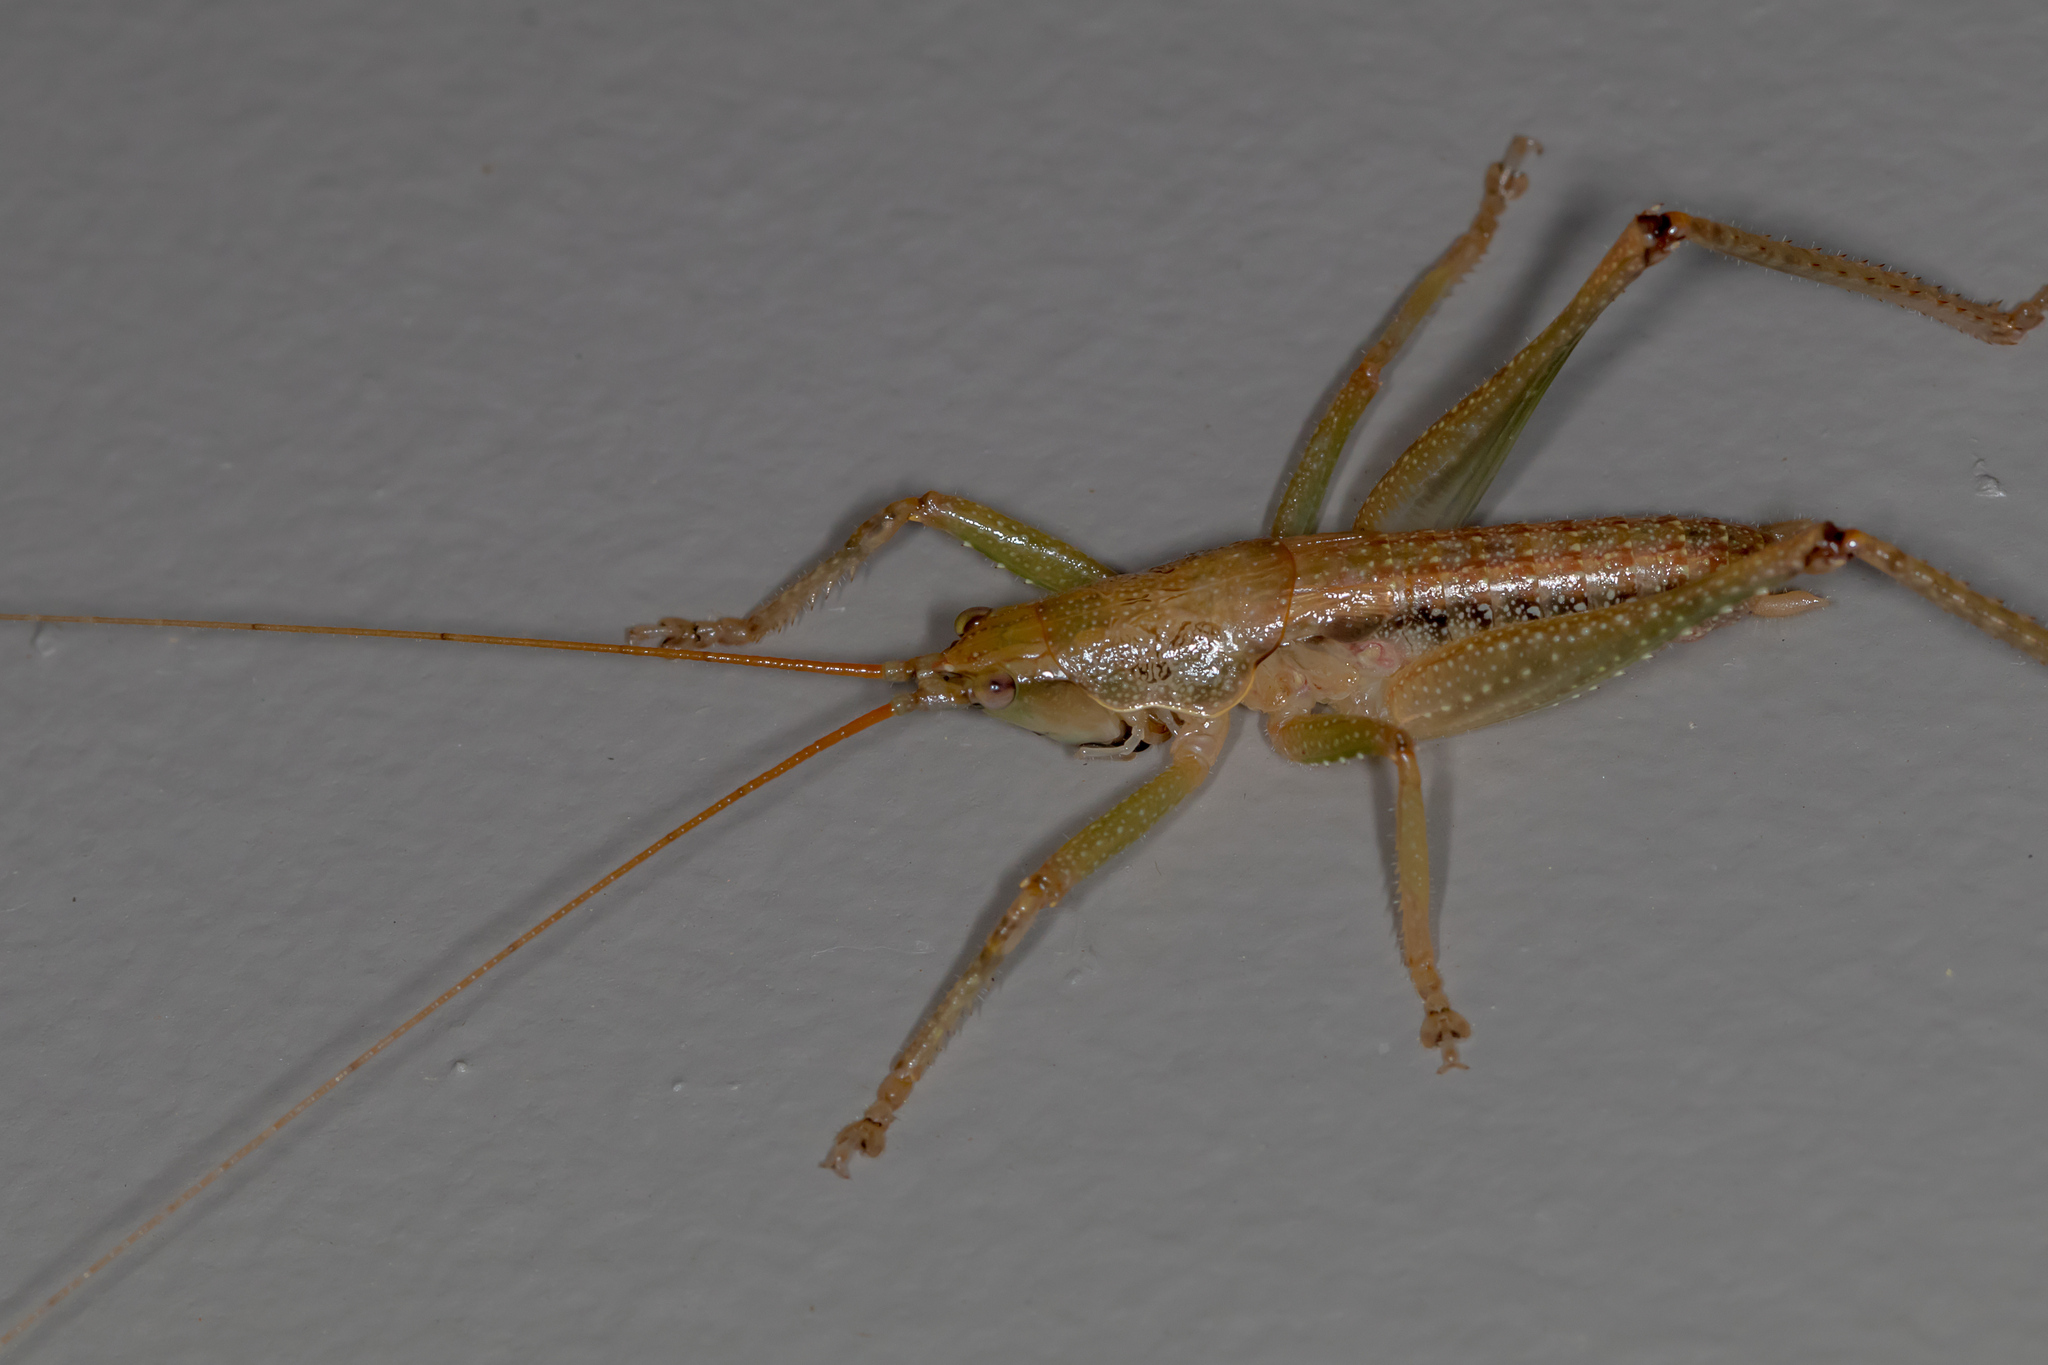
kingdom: Animalia
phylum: Arthropoda
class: Insecta
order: Orthoptera
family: Tettigoniidae
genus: Austrosalomona
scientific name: Austrosalomona falcata
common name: Olive-green coastal katydid
